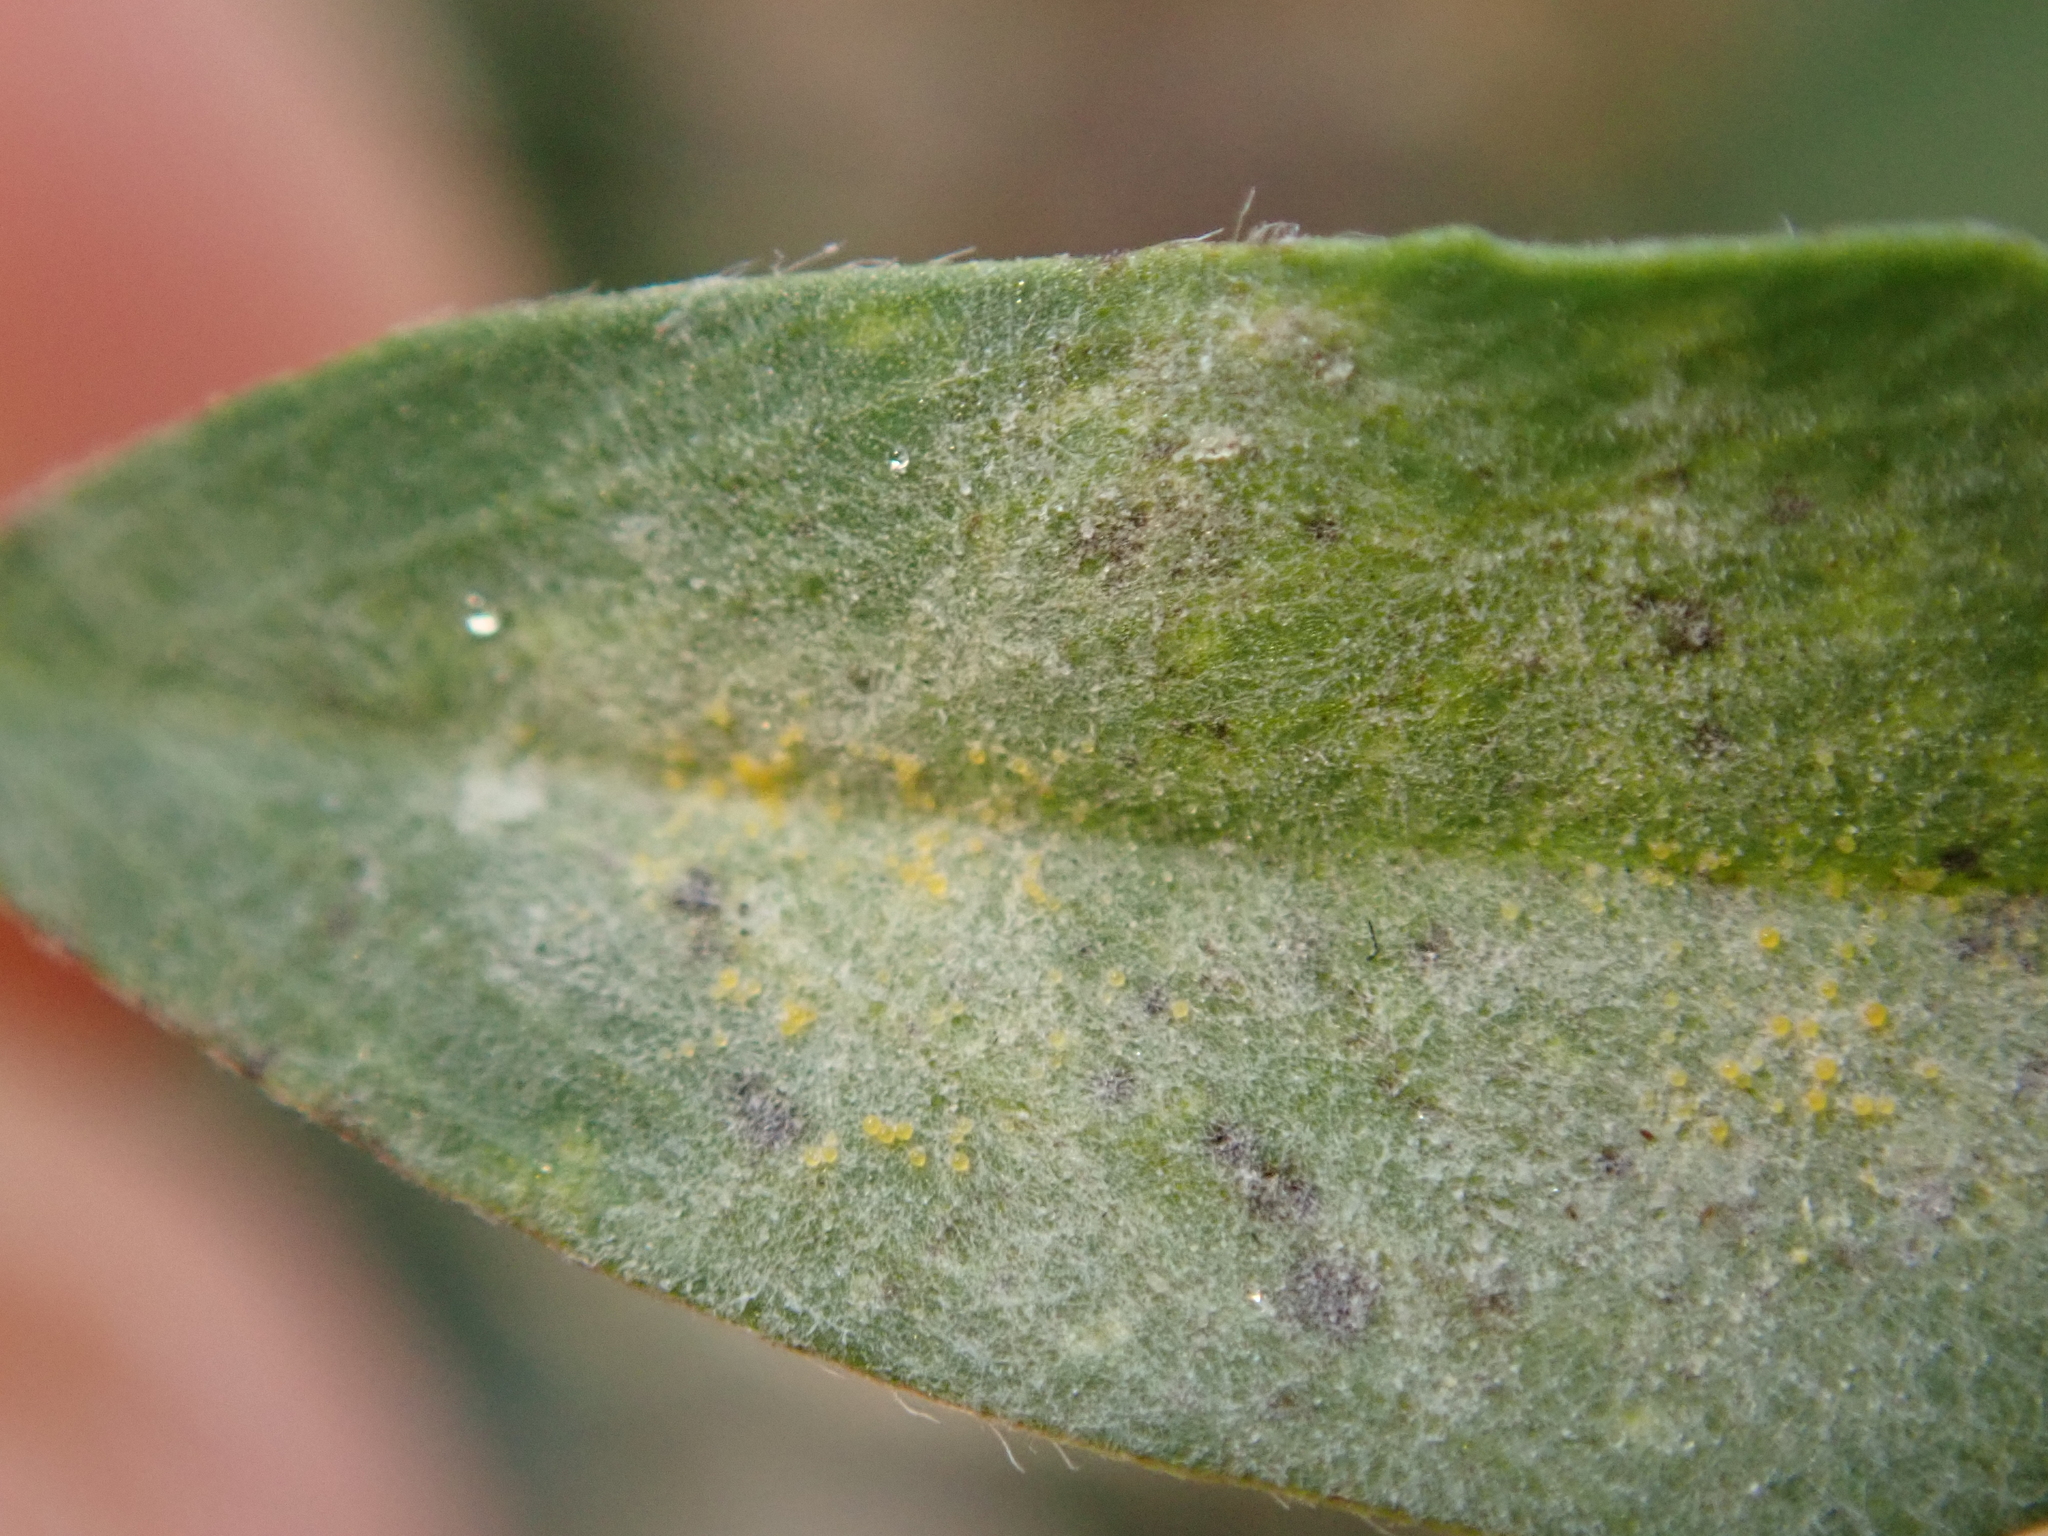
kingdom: Fungi
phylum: Ascomycota
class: Leotiomycetes
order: Helotiales
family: Erysiphaceae
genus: Erysiphe
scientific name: Erysiphe trifoliorum
